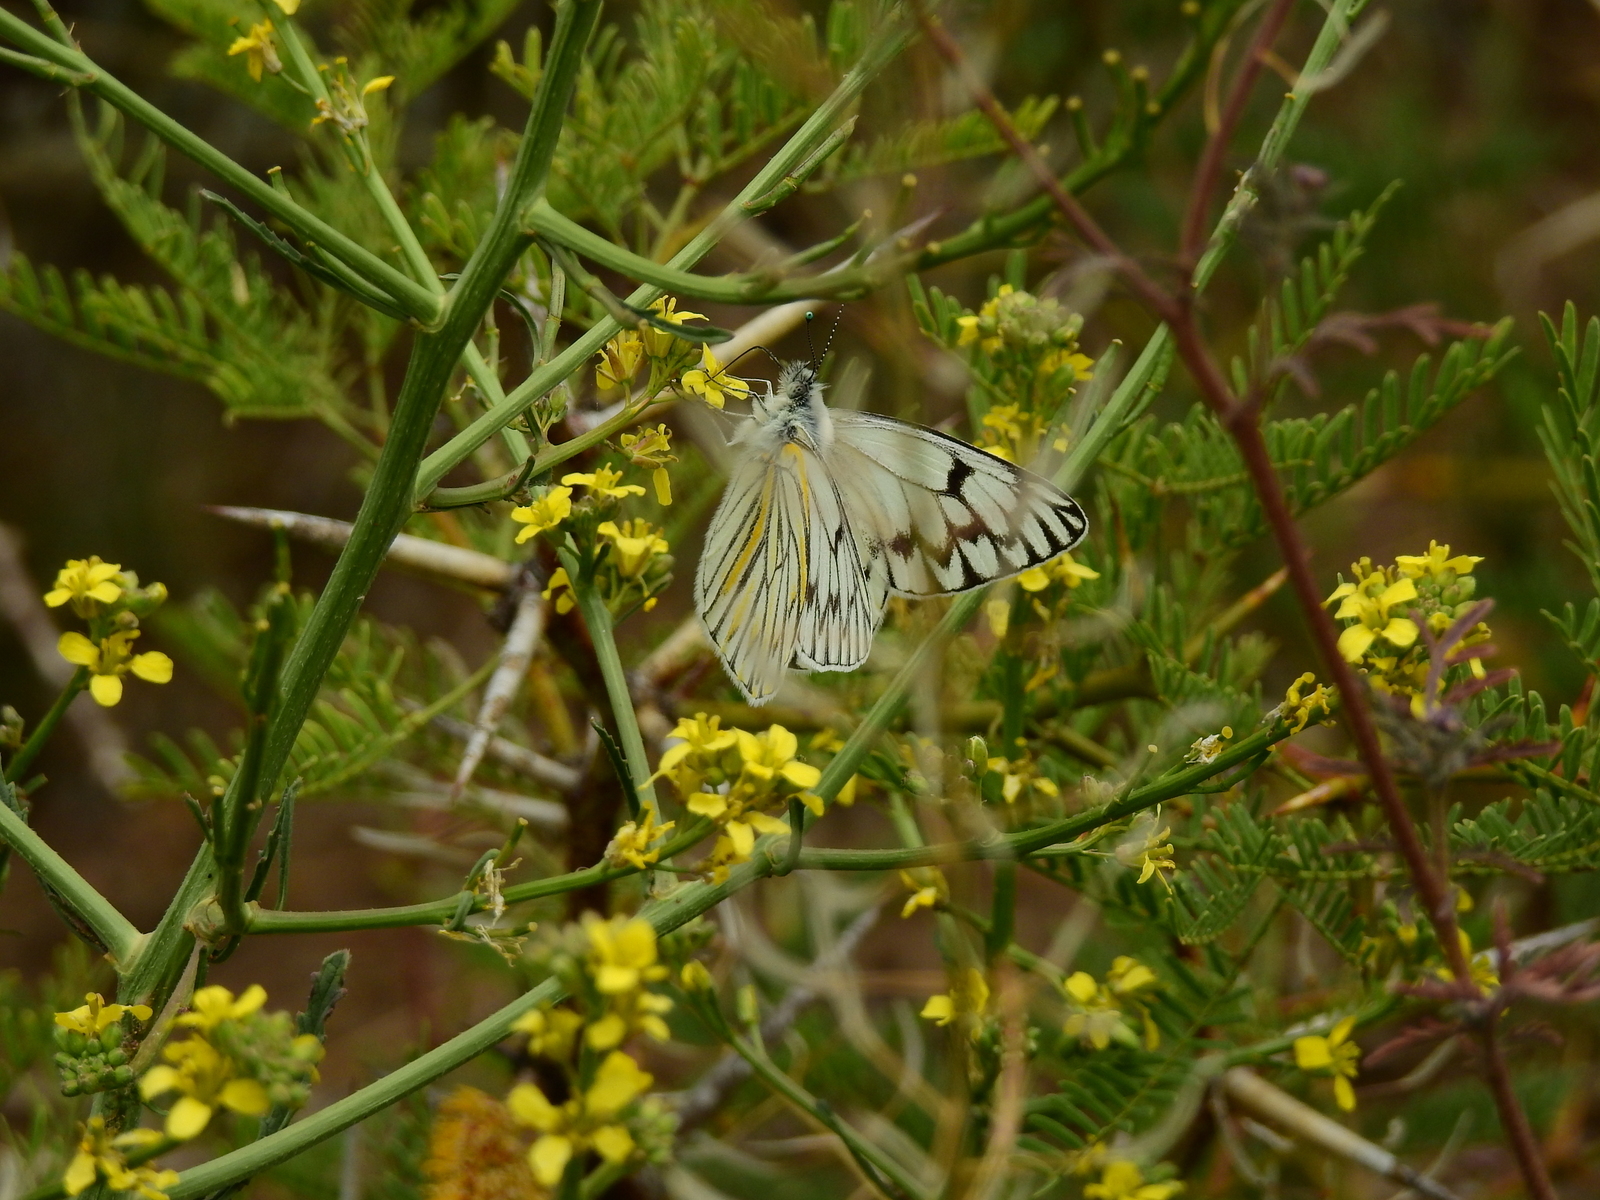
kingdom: Animalia
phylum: Arthropoda
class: Insecta
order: Lepidoptera
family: Pieridae
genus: Tatochila
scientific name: Tatochila theodice
